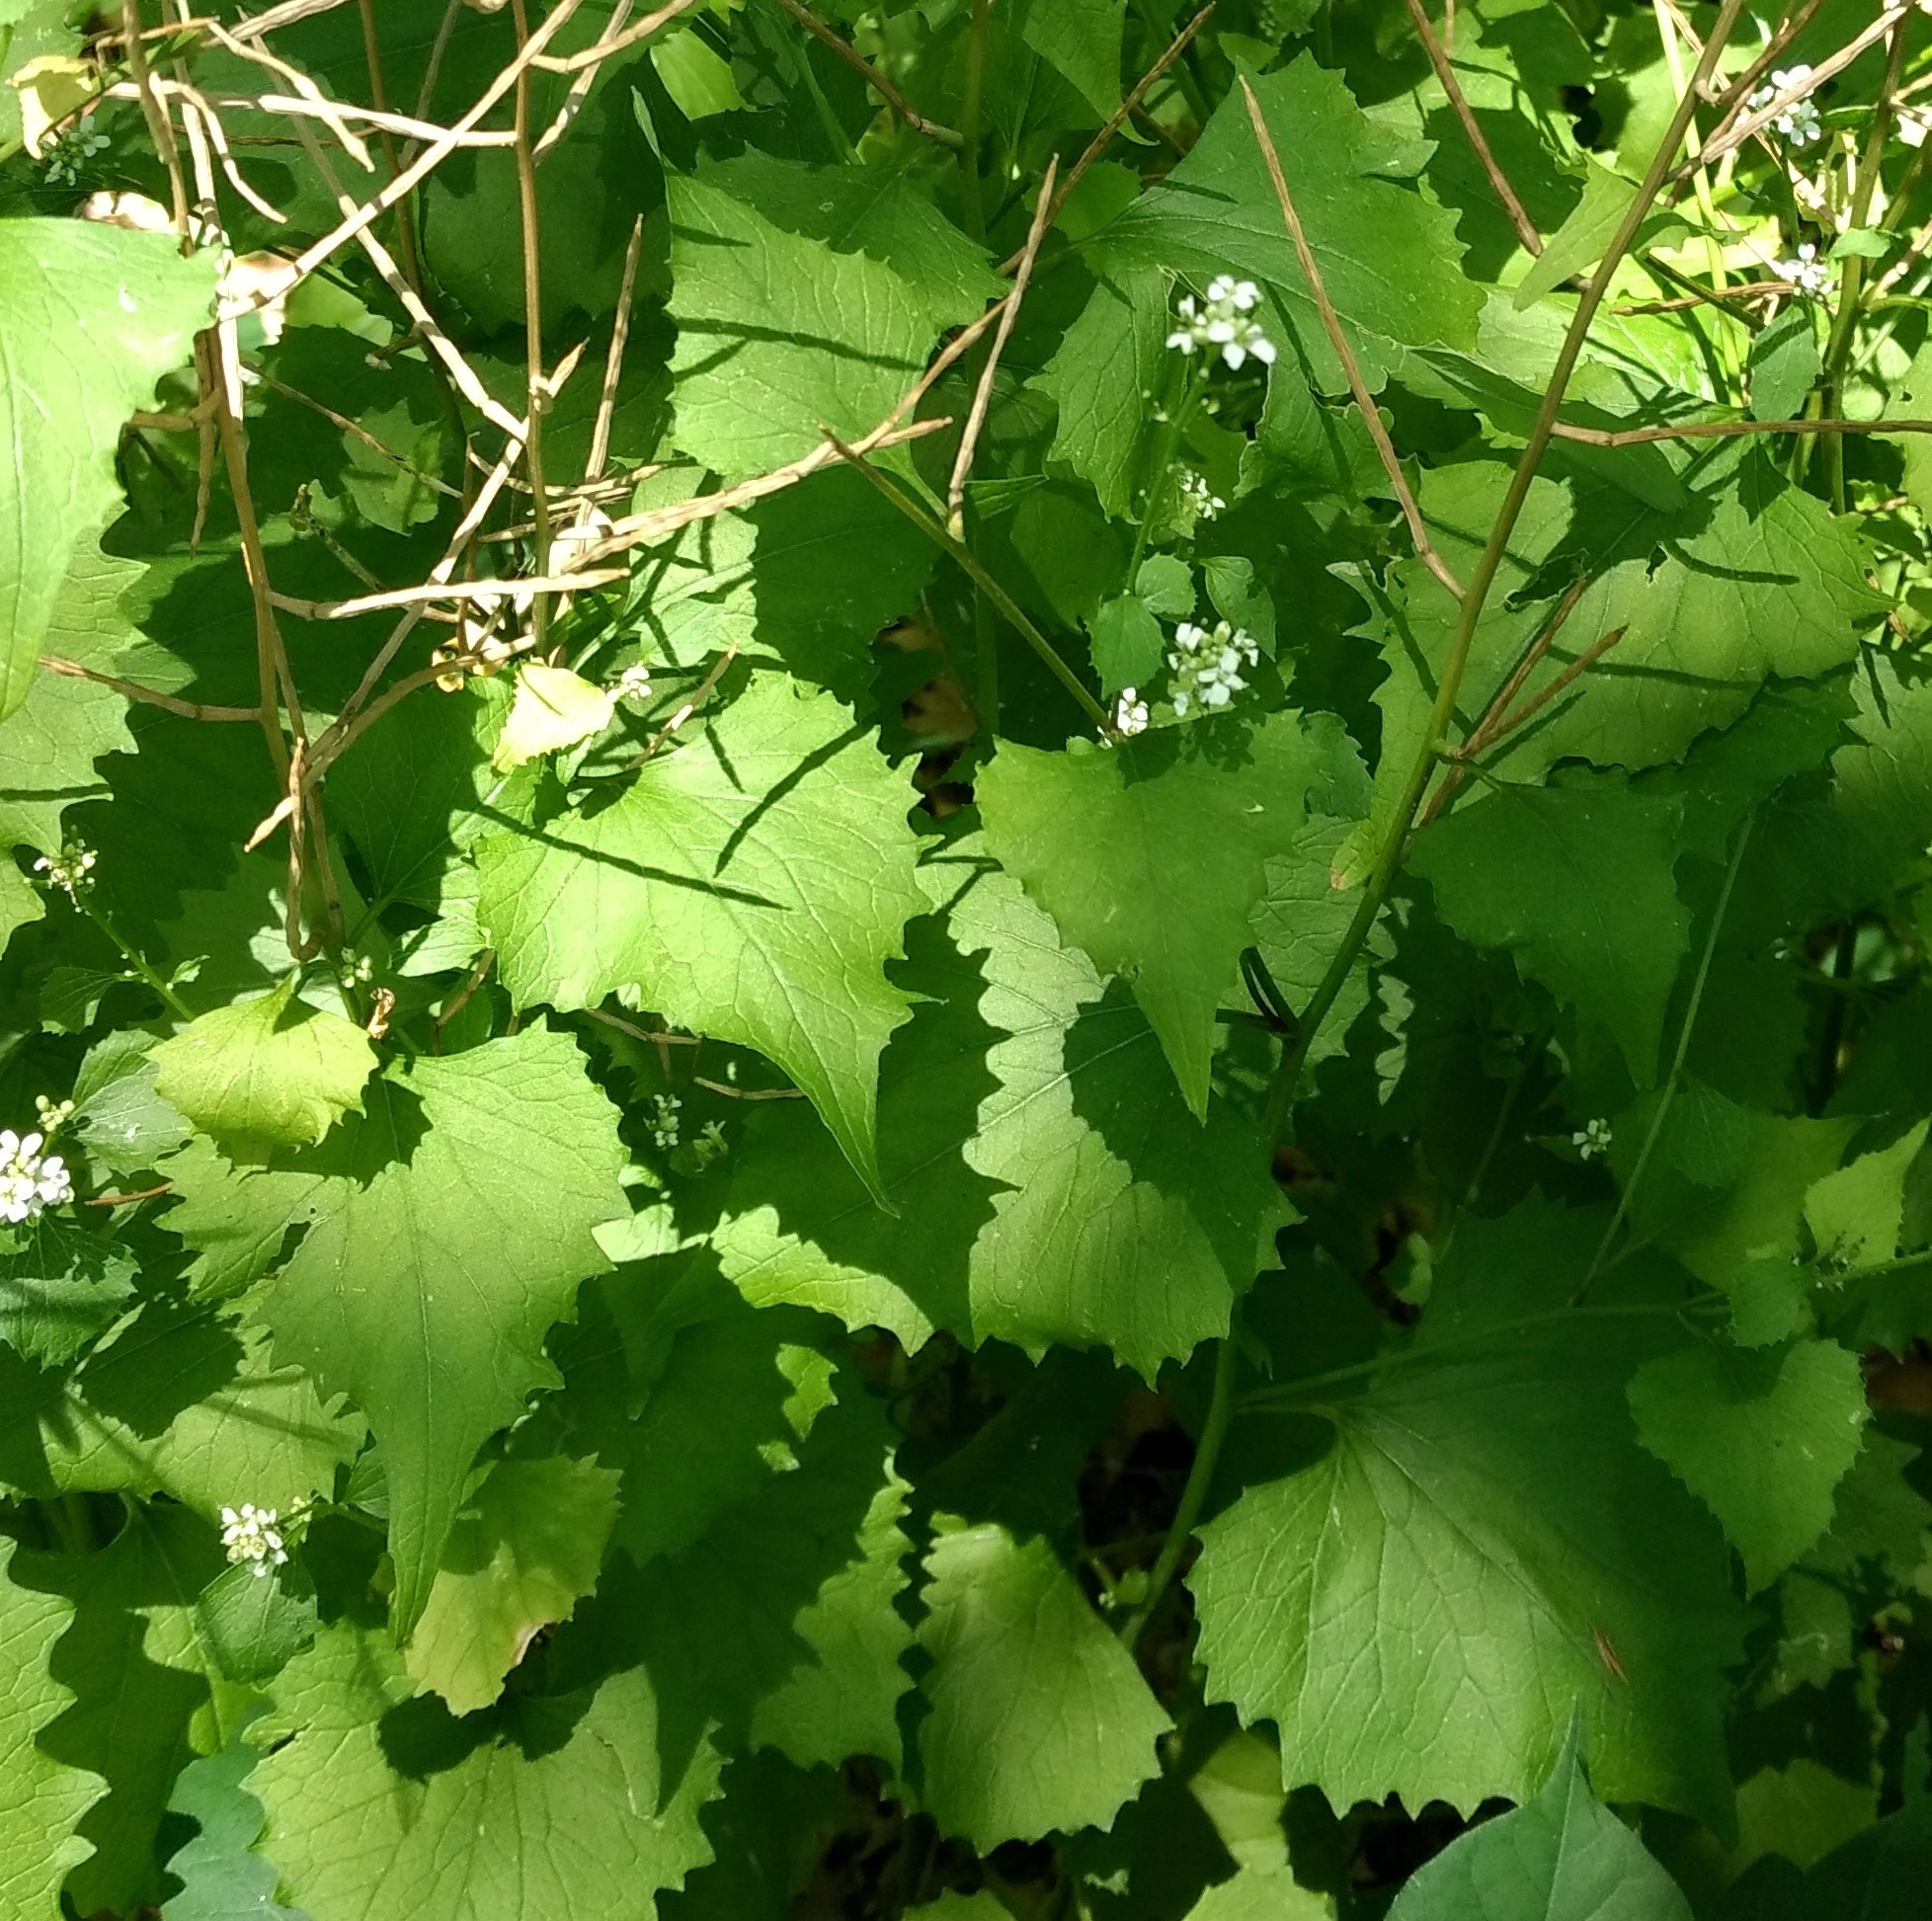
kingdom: Plantae
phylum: Tracheophyta
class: Magnoliopsida
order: Brassicales
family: Brassicaceae
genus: Alliaria
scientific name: Alliaria petiolata
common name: Garlic mustard
